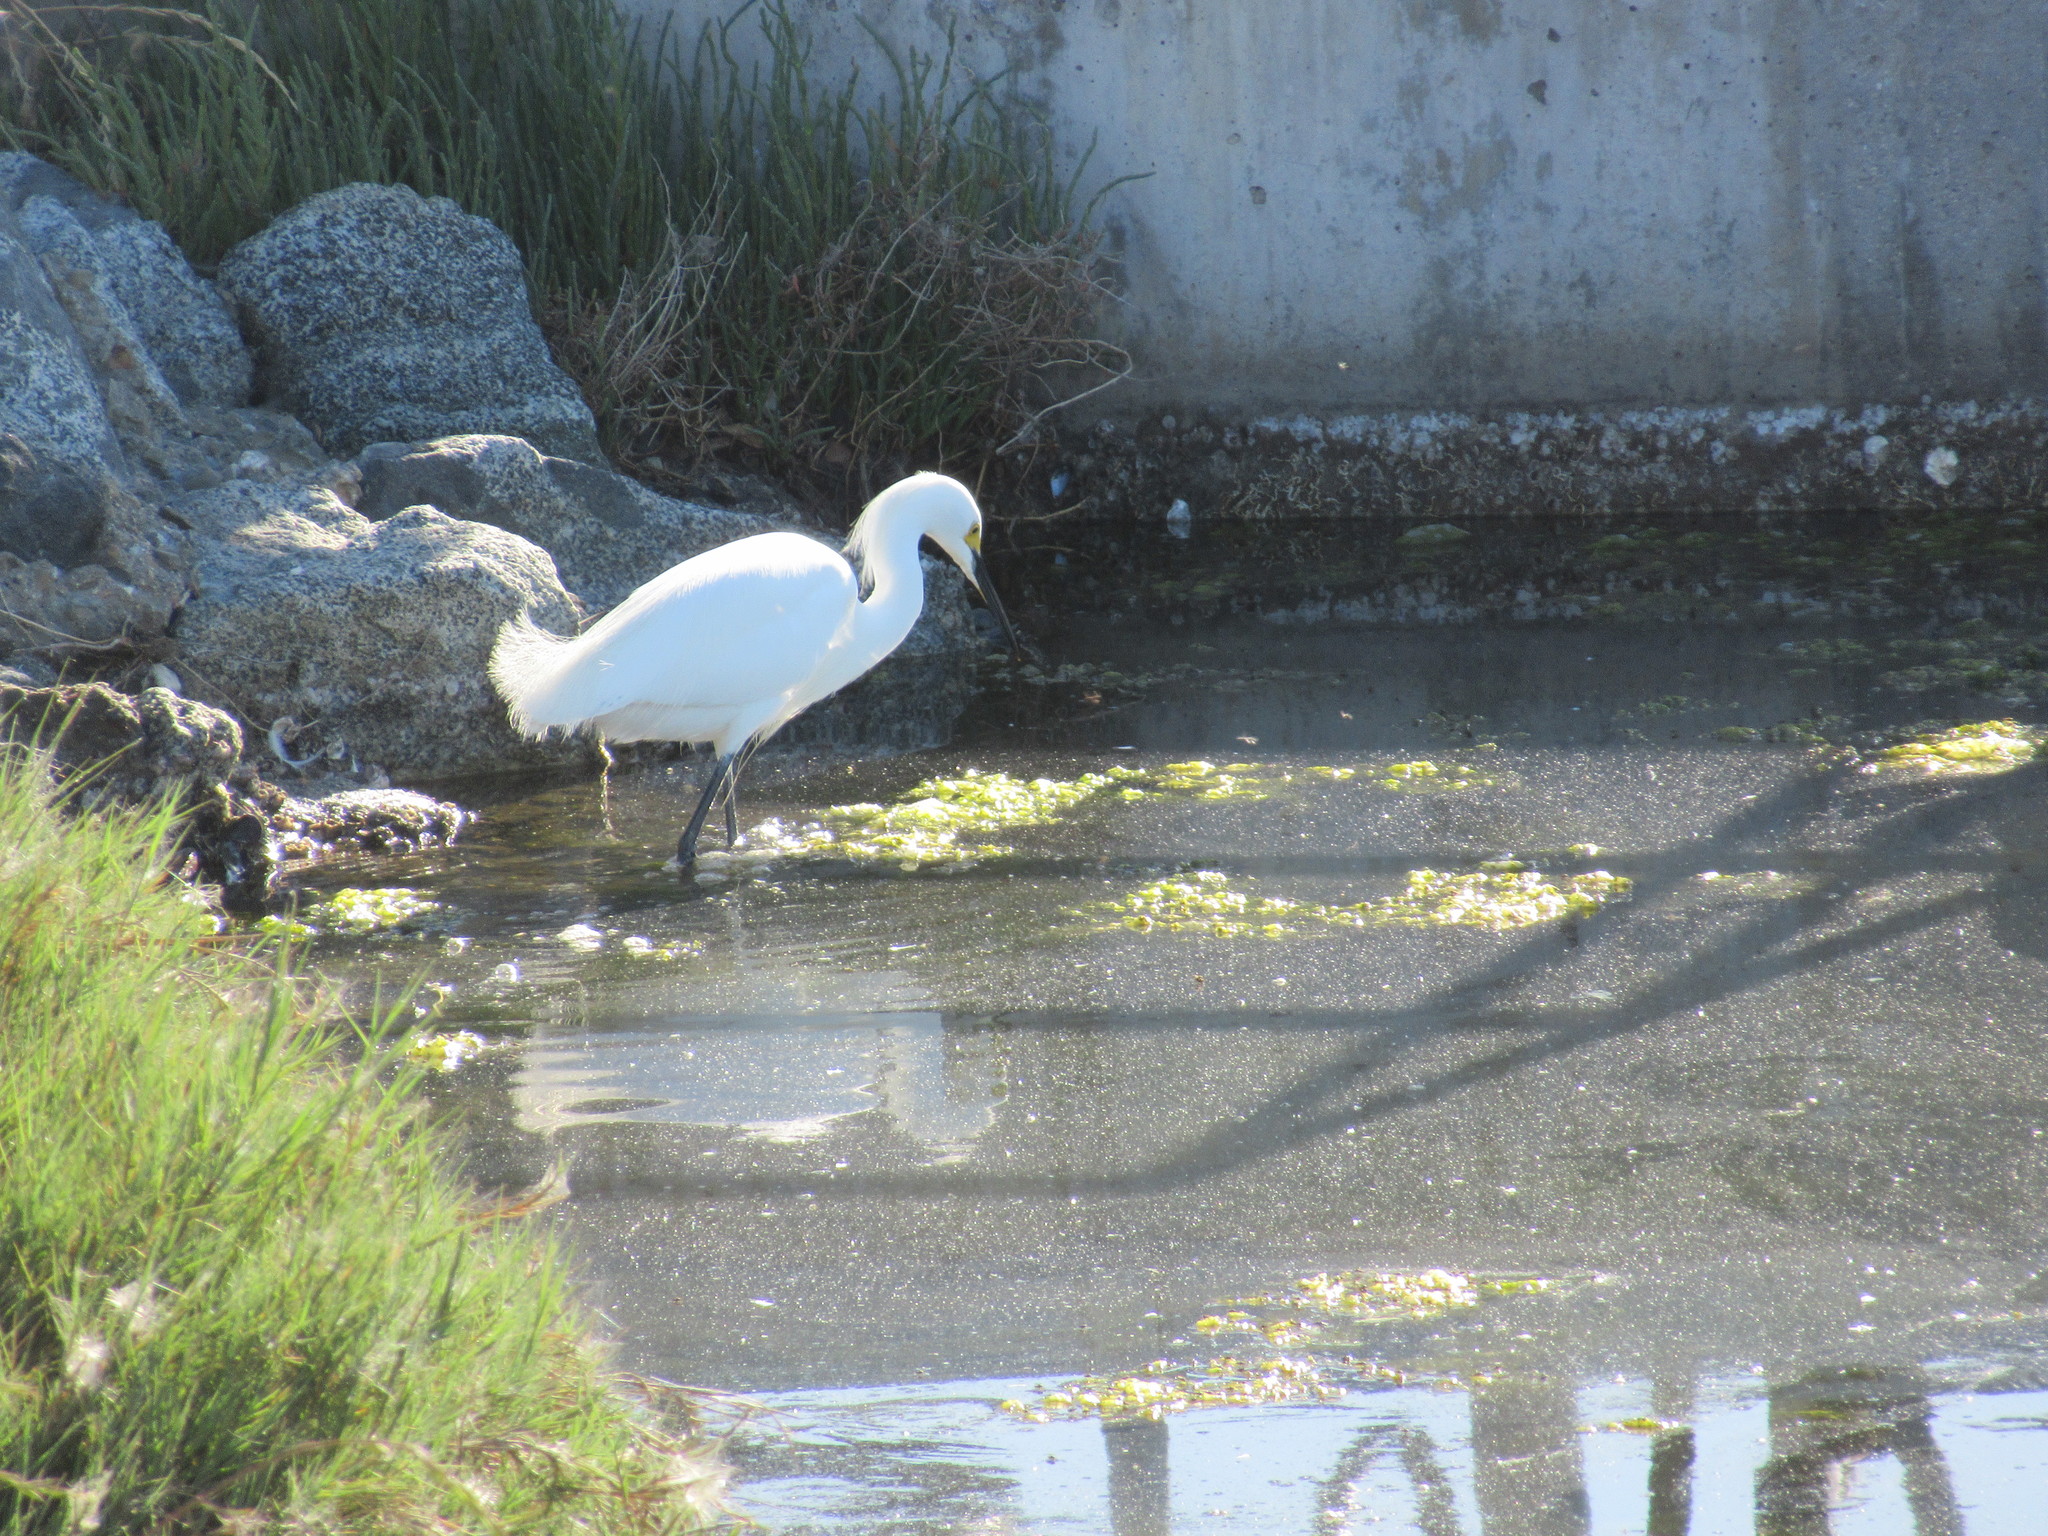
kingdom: Animalia
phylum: Chordata
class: Aves
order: Pelecaniformes
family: Ardeidae
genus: Egretta
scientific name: Egretta thula
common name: Snowy egret
